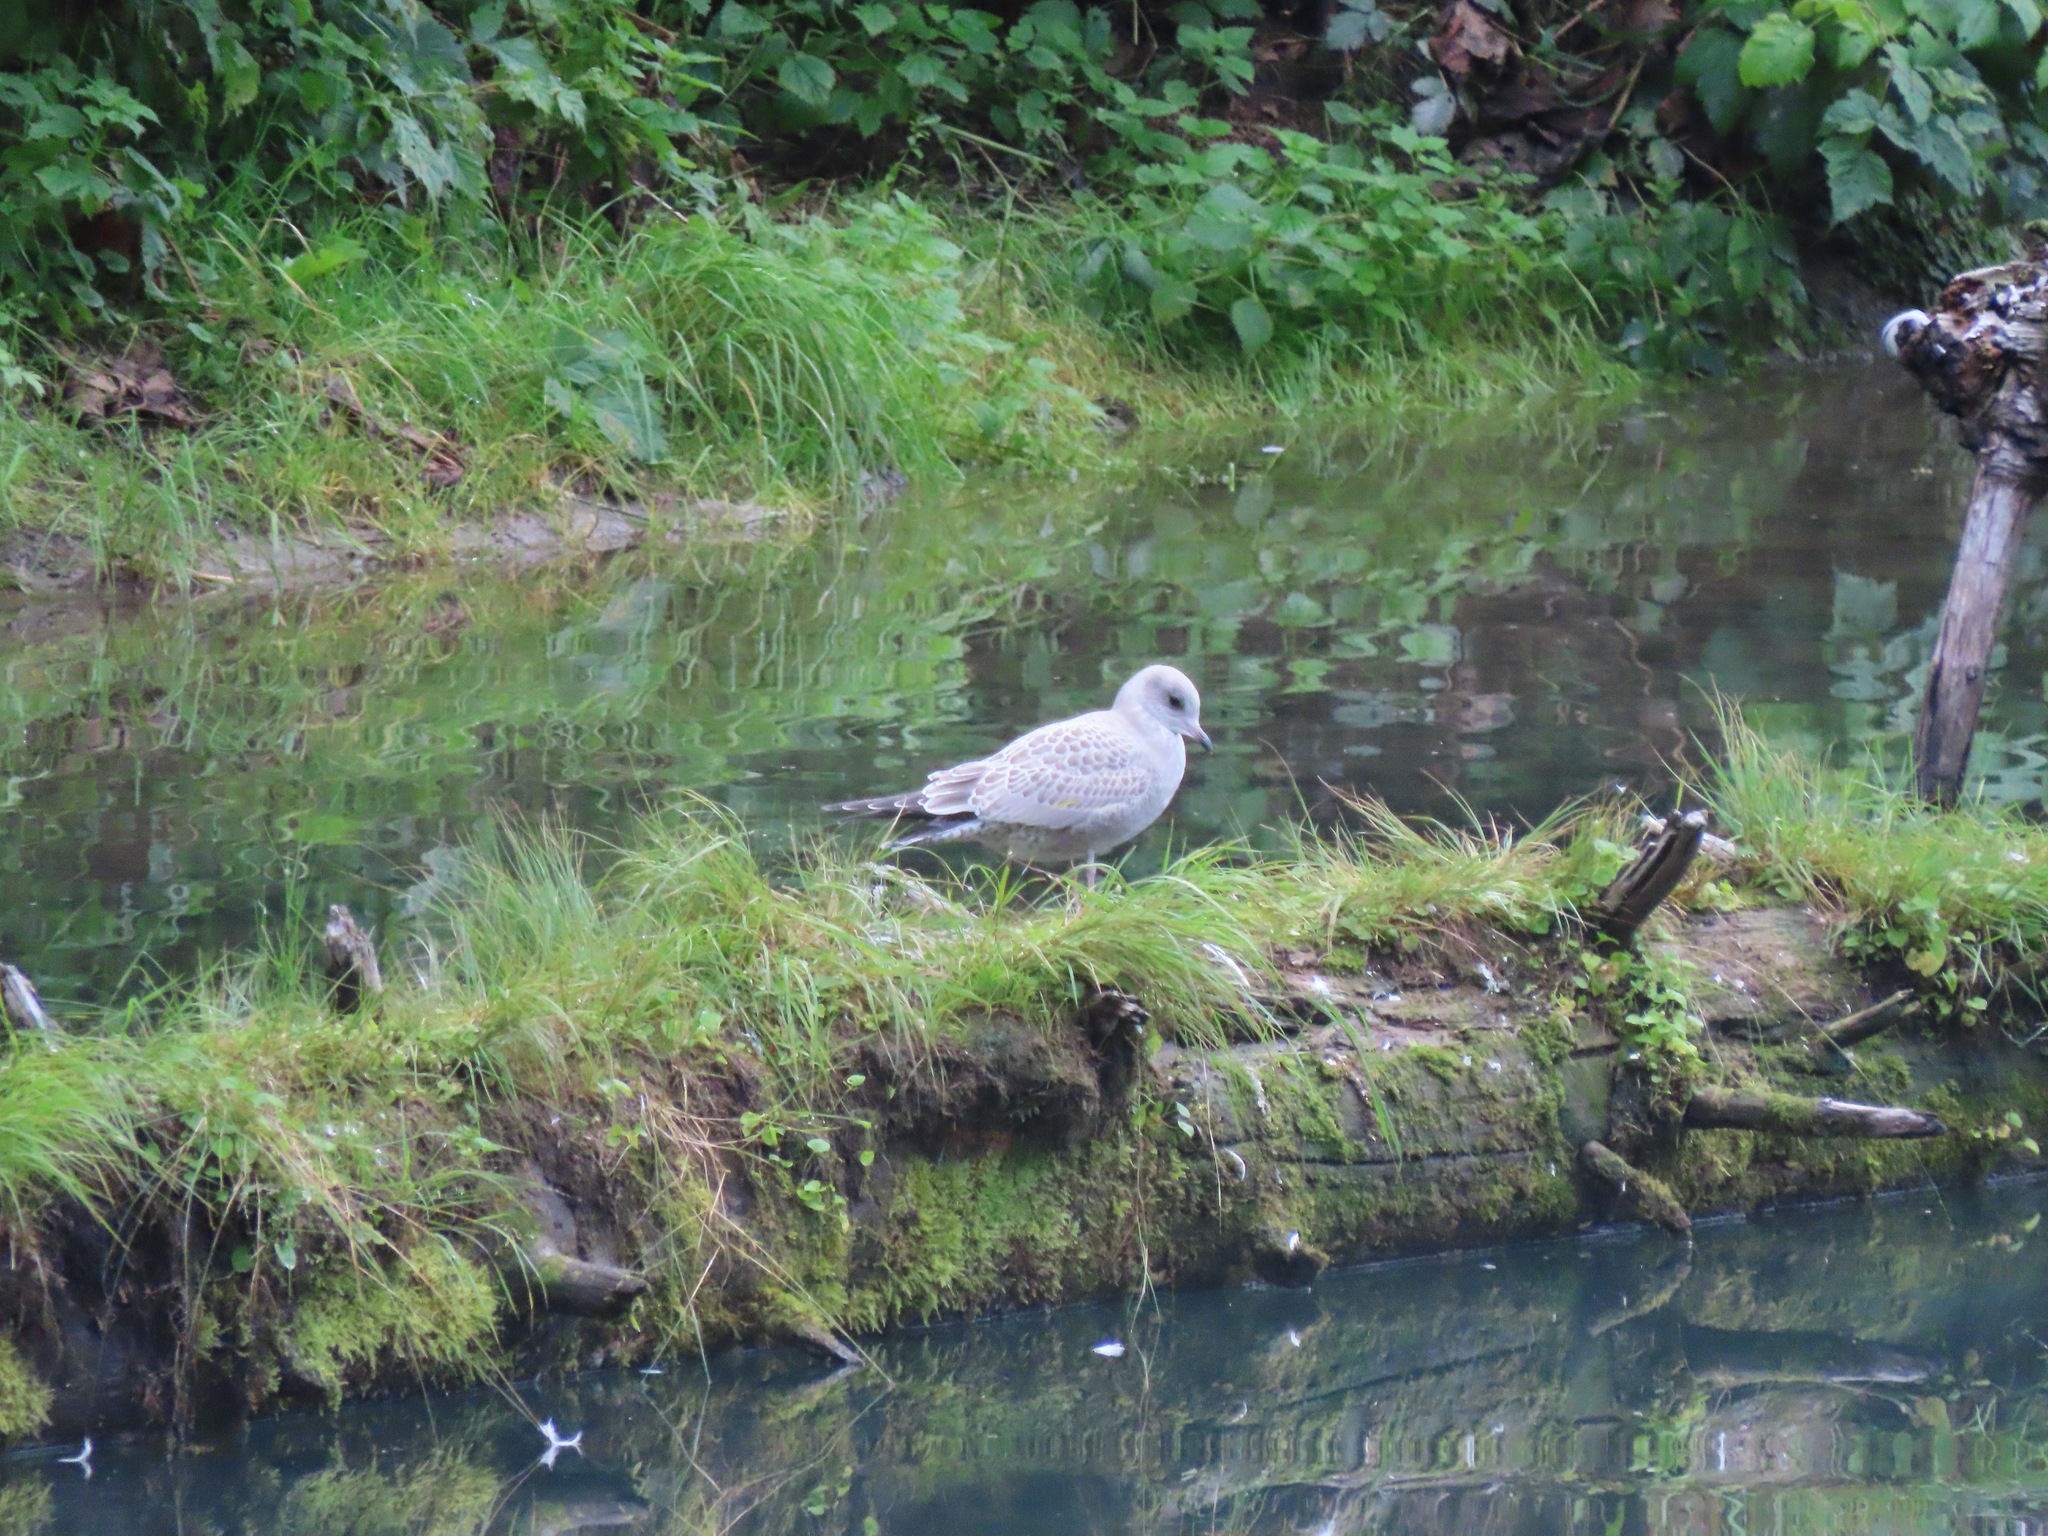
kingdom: Animalia
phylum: Chordata
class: Aves
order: Charadriiformes
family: Laridae
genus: Larus
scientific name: Larus brachyrhynchus
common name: Short-billed gull
